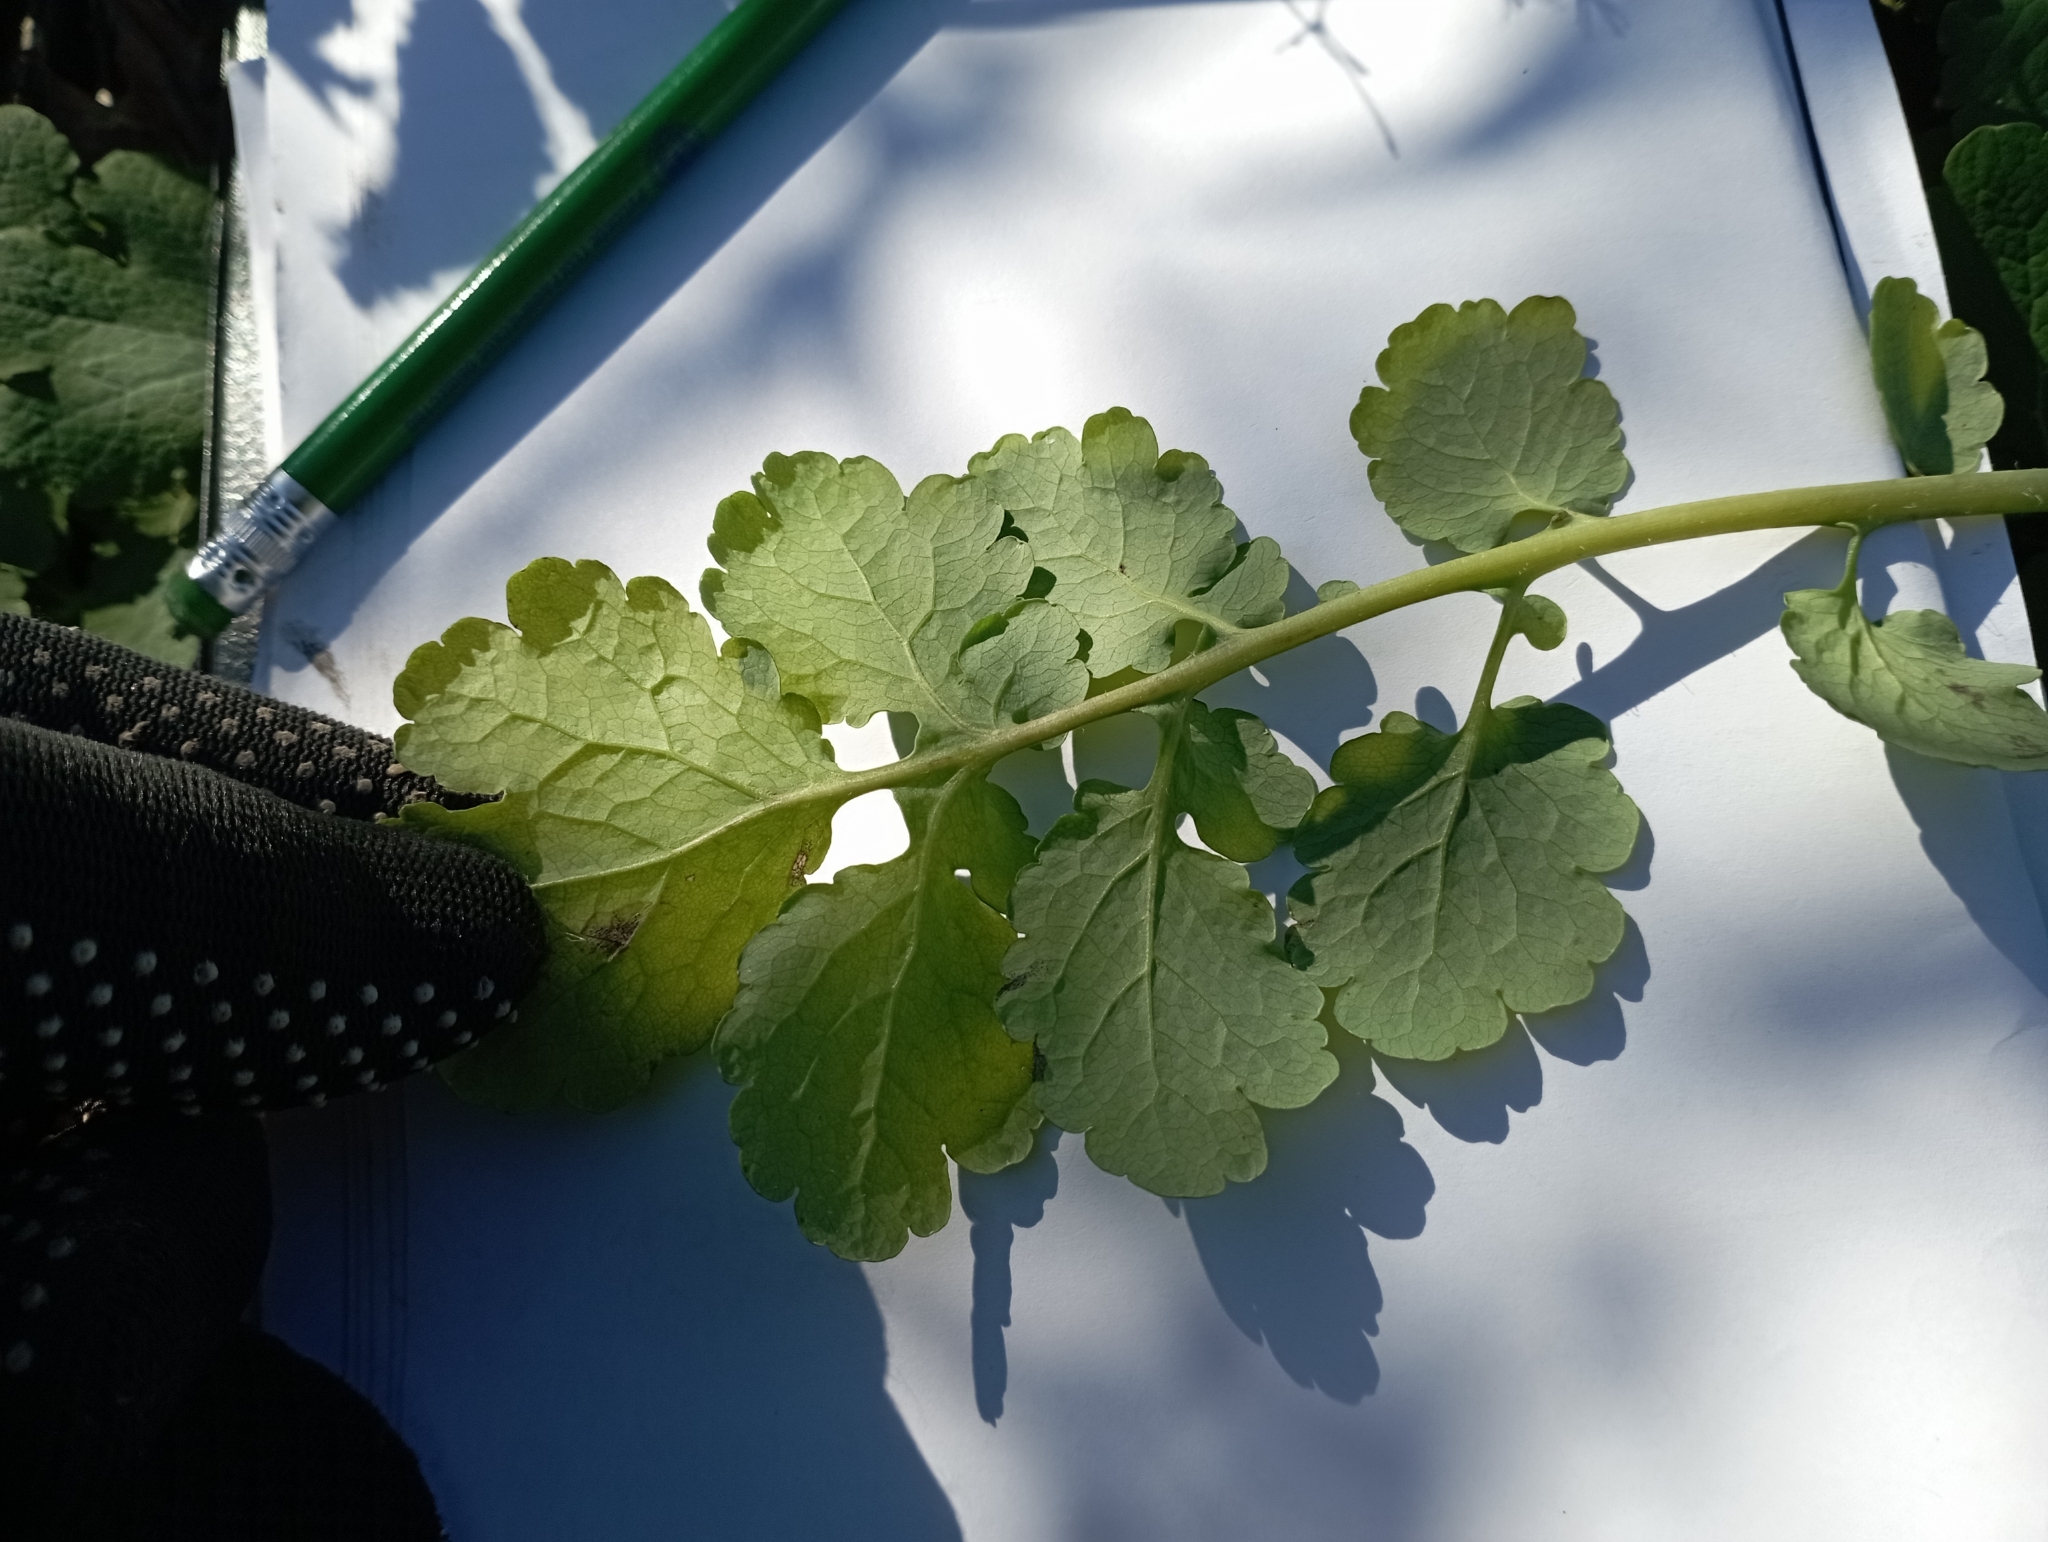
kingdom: Plantae
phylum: Tracheophyta
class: Magnoliopsida
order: Ranunculales
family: Papaveraceae
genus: Chelidonium
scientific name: Chelidonium majus
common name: Greater celandine
